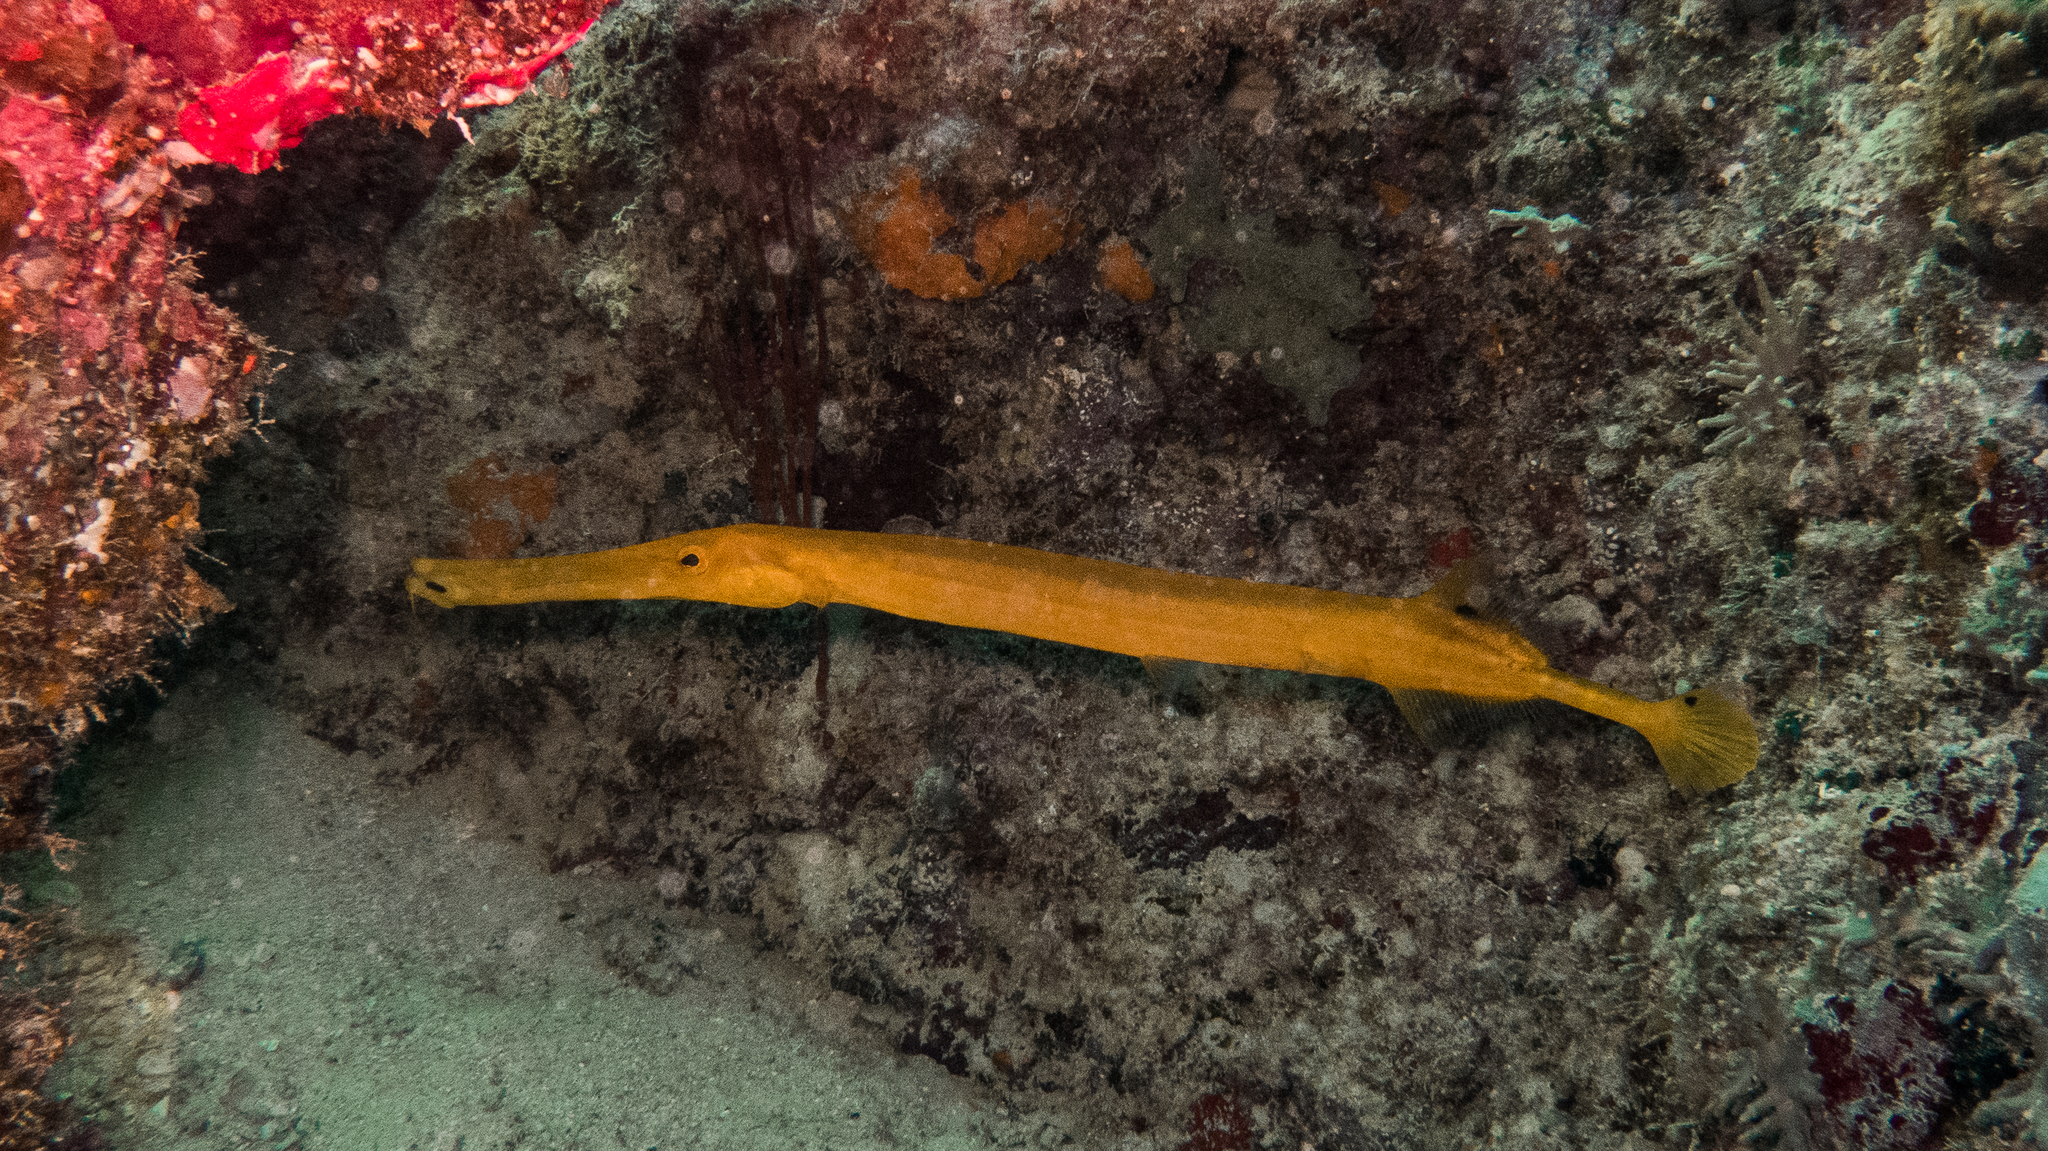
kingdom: Animalia
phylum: Chordata
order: Syngnathiformes
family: Aulostomidae
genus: Aulostomus
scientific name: Aulostomus chinensis
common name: Chinese trumpetfish
